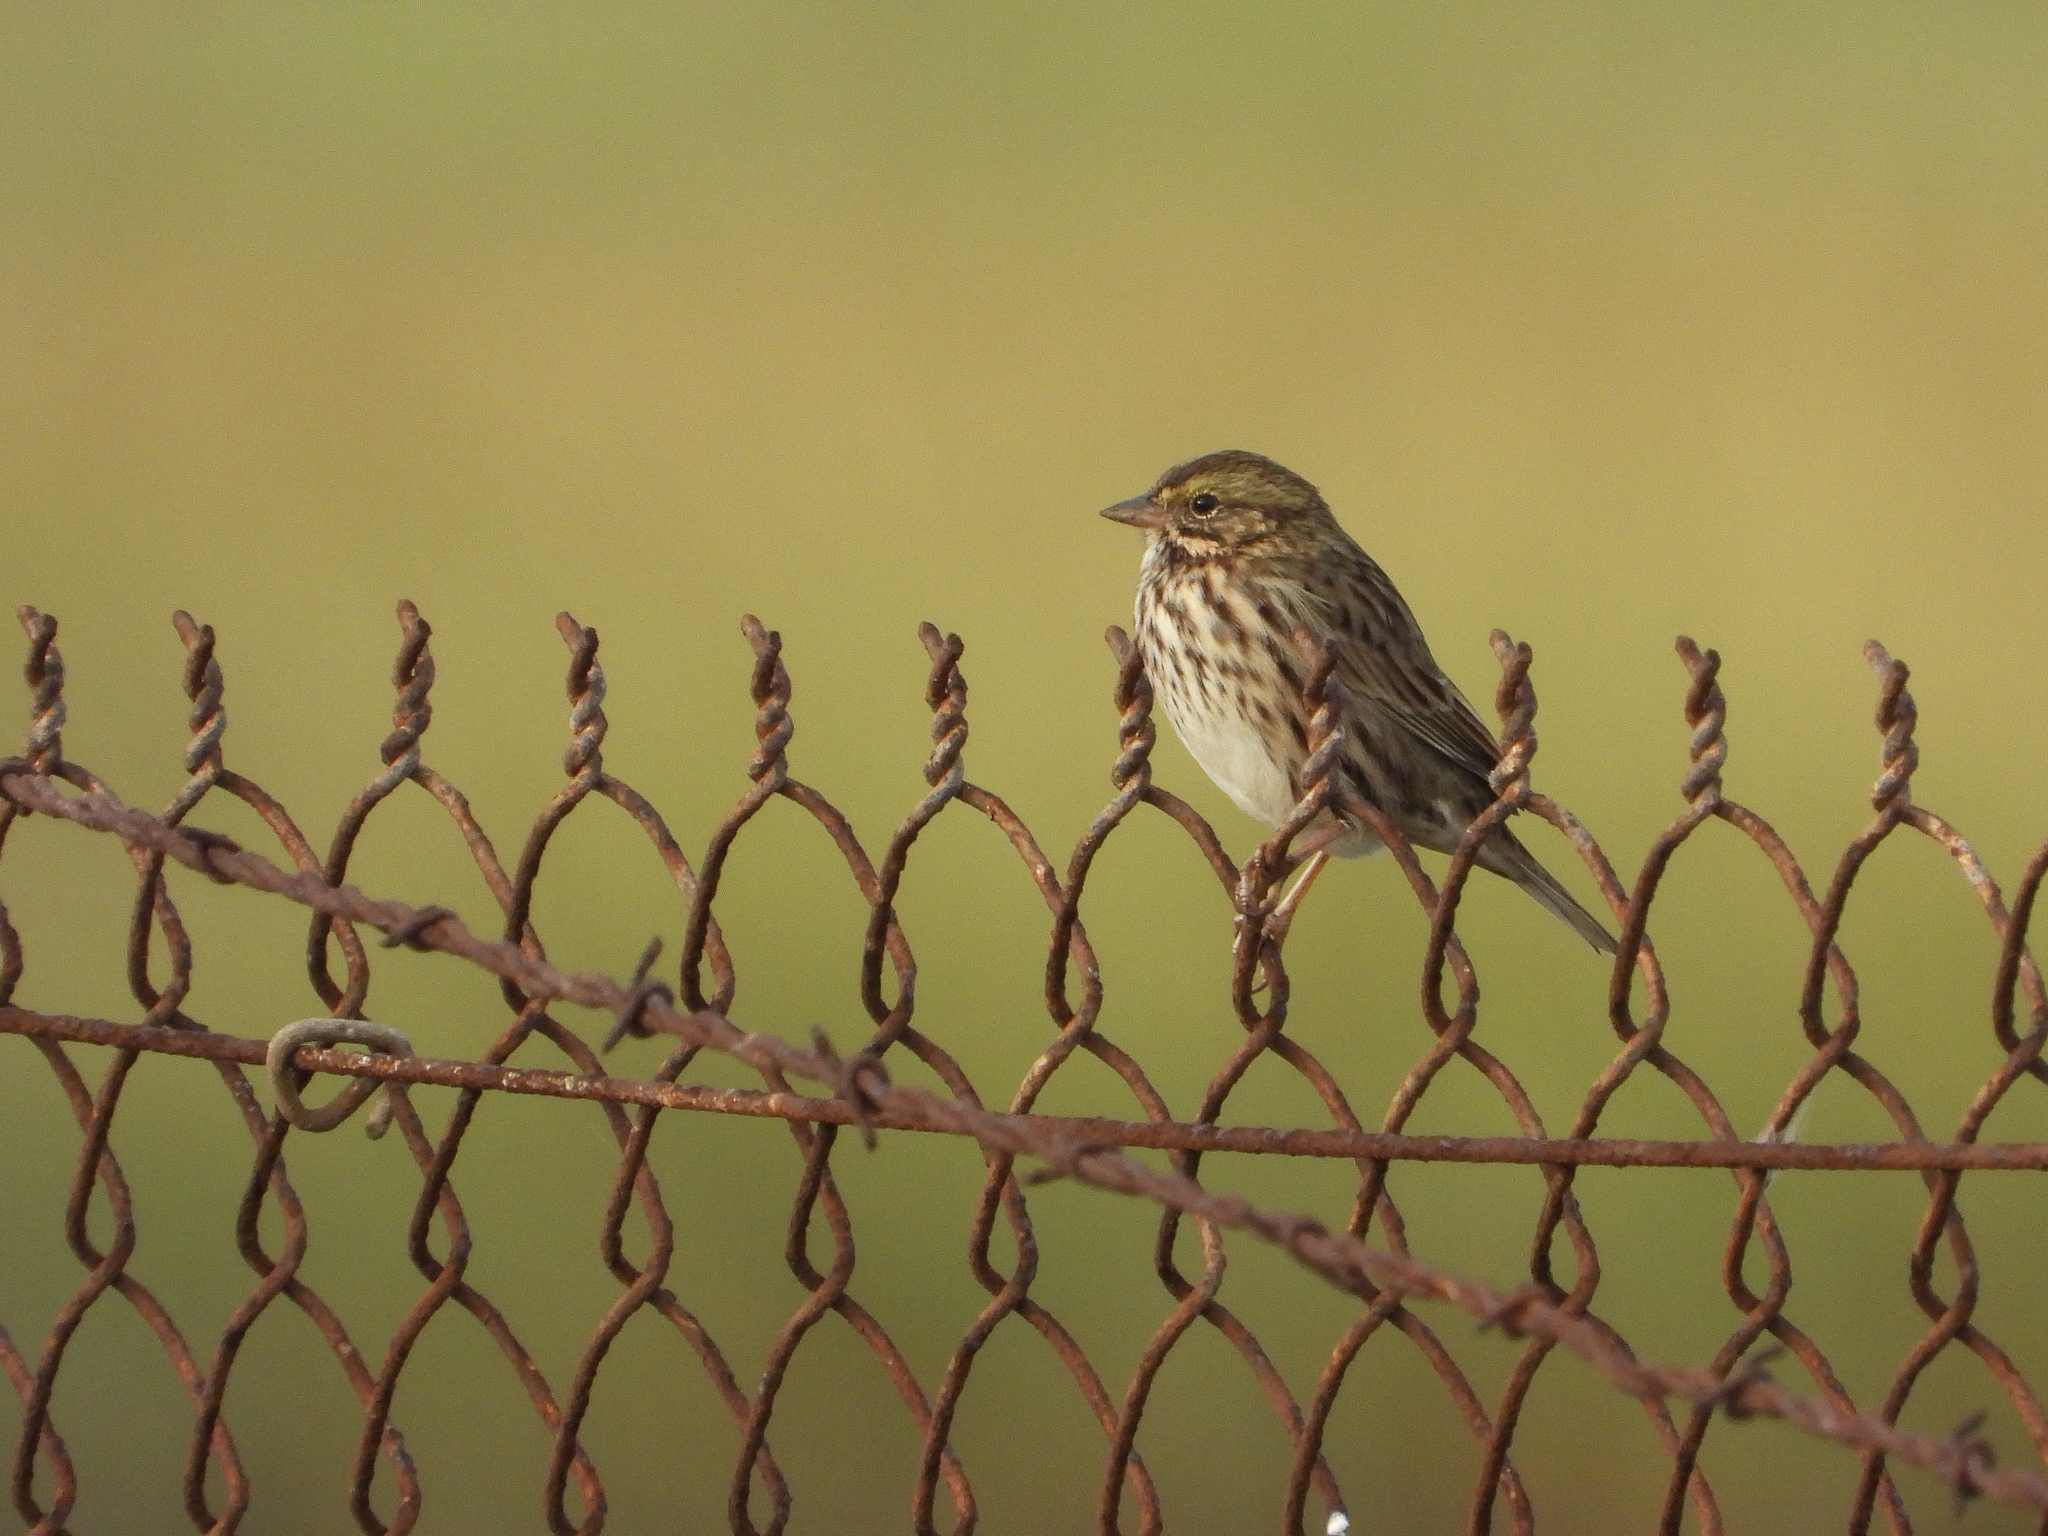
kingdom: Animalia
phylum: Chordata
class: Aves
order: Passeriformes
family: Passerellidae
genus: Passerculus
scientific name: Passerculus sandwichensis
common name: Savannah sparrow
